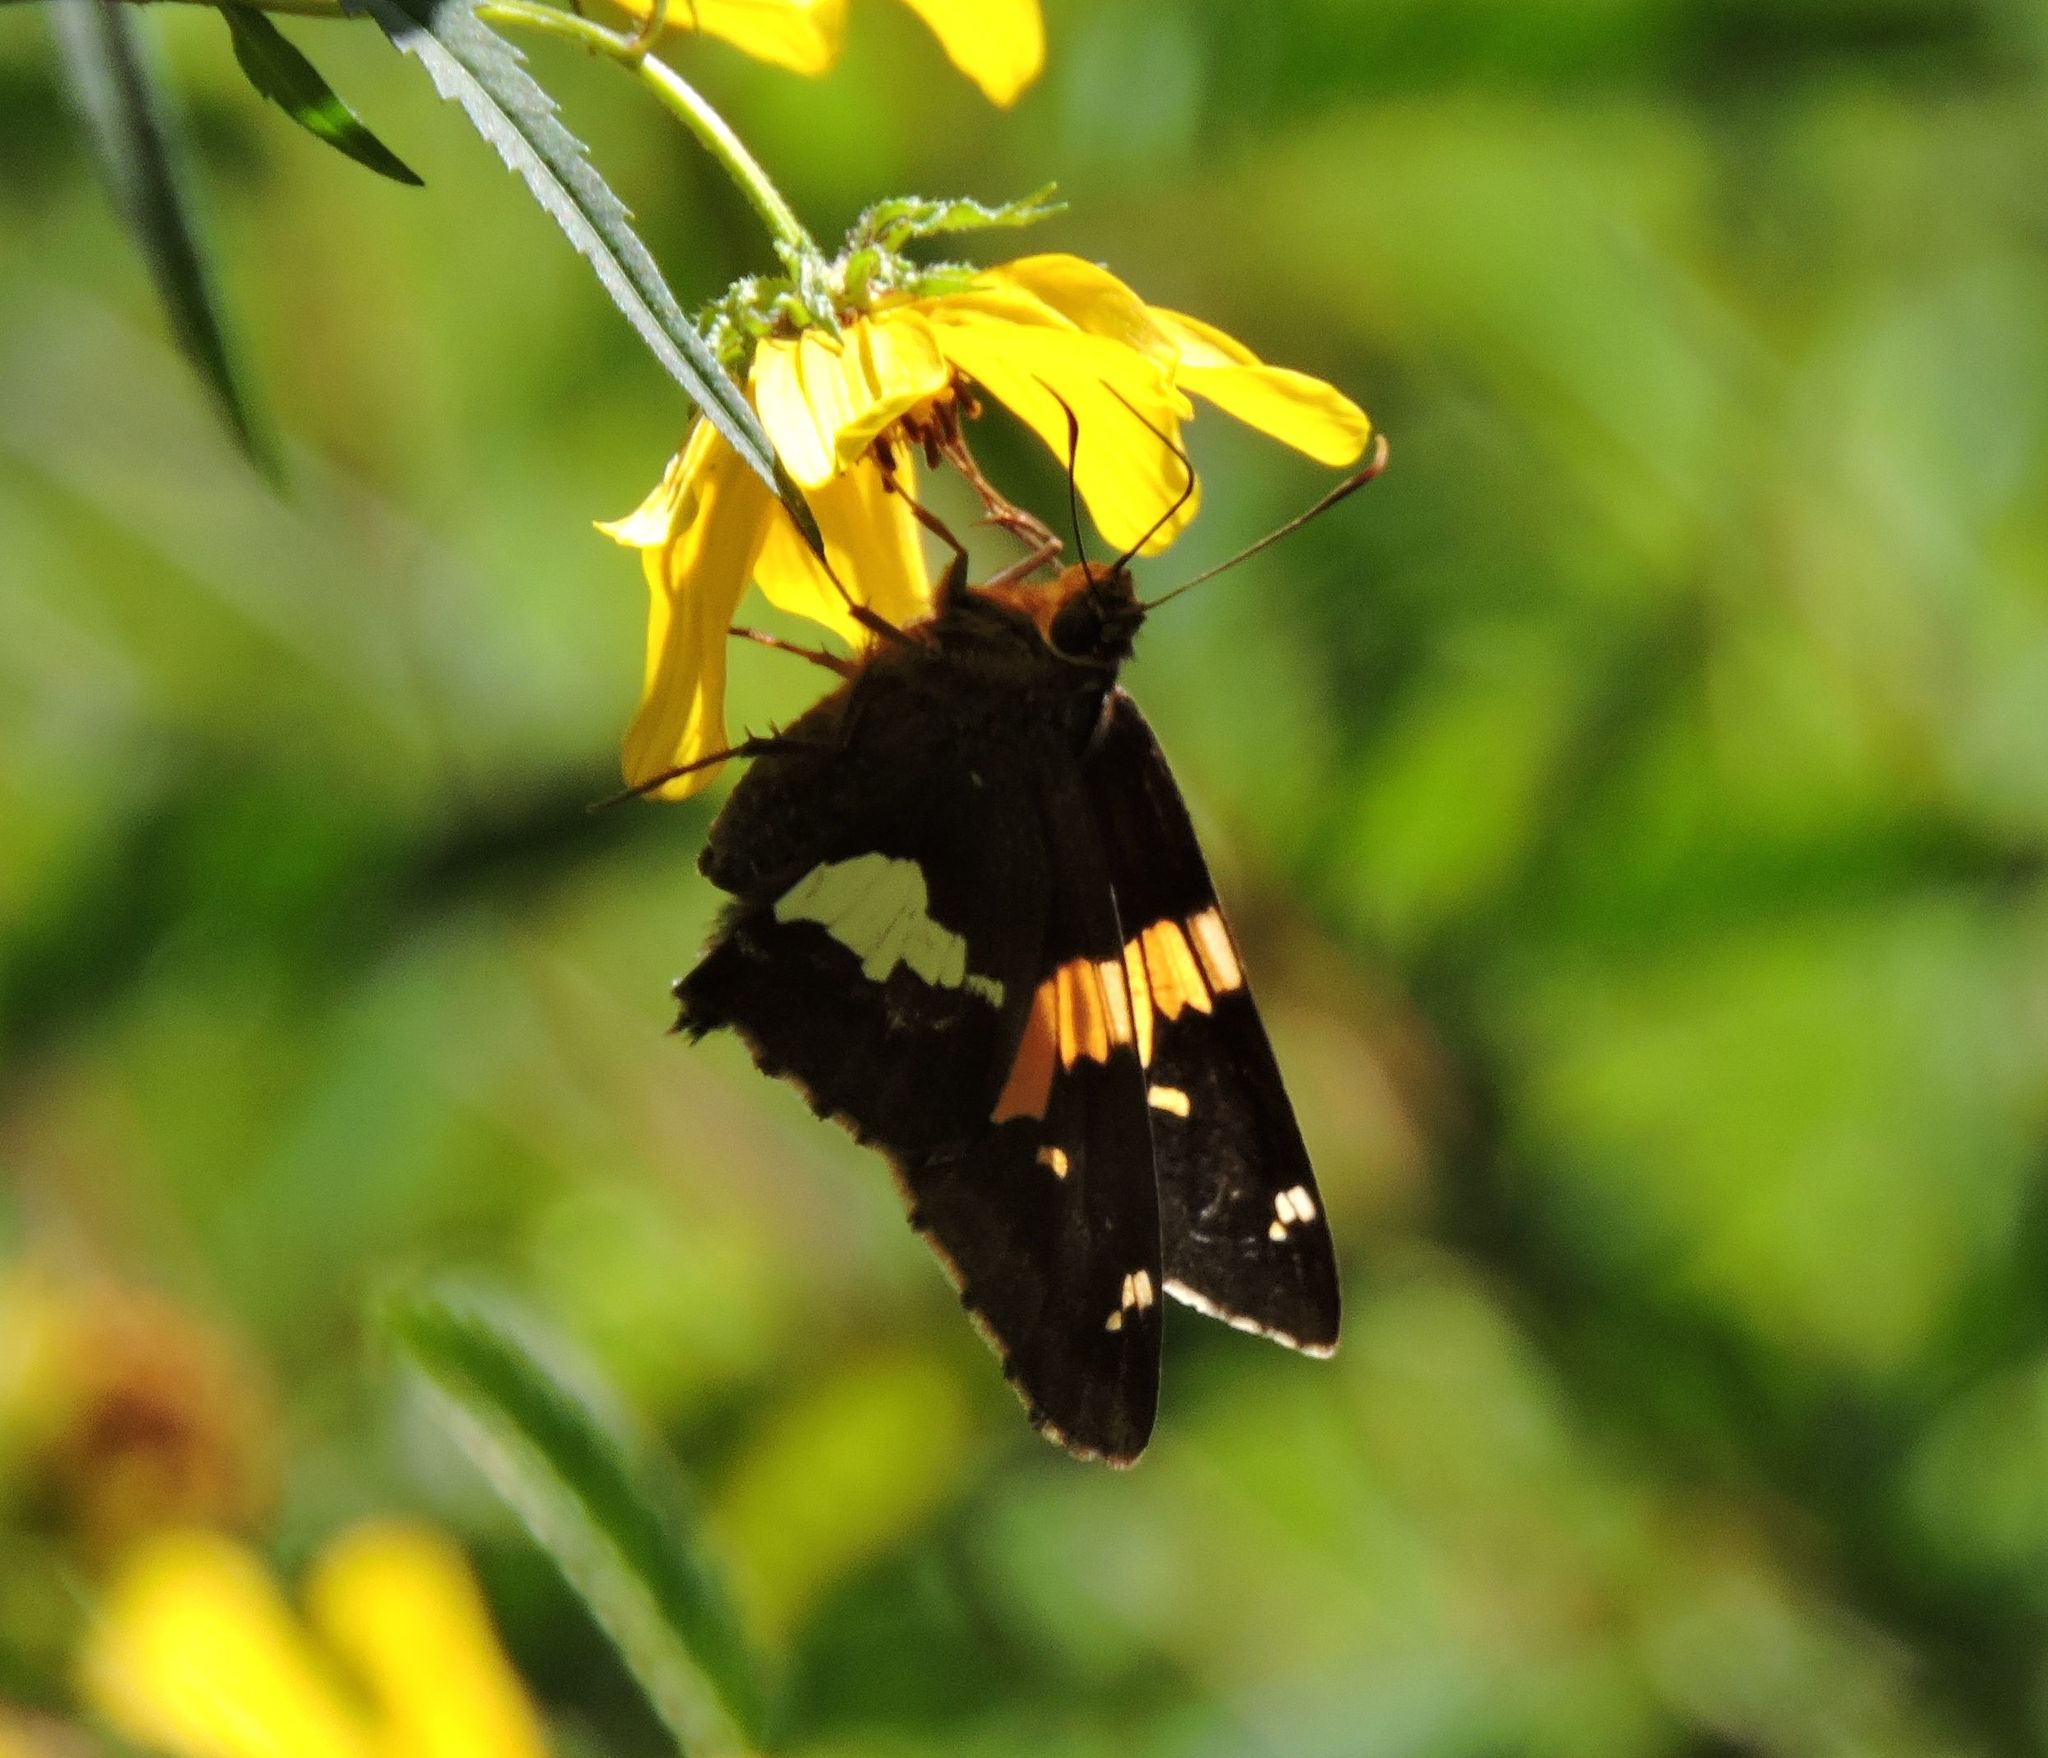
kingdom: Animalia
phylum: Arthropoda
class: Insecta
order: Lepidoptera
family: Hesperiidae
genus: Epargyreus
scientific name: Epargyreus clarus
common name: Silver-spotted skipper
